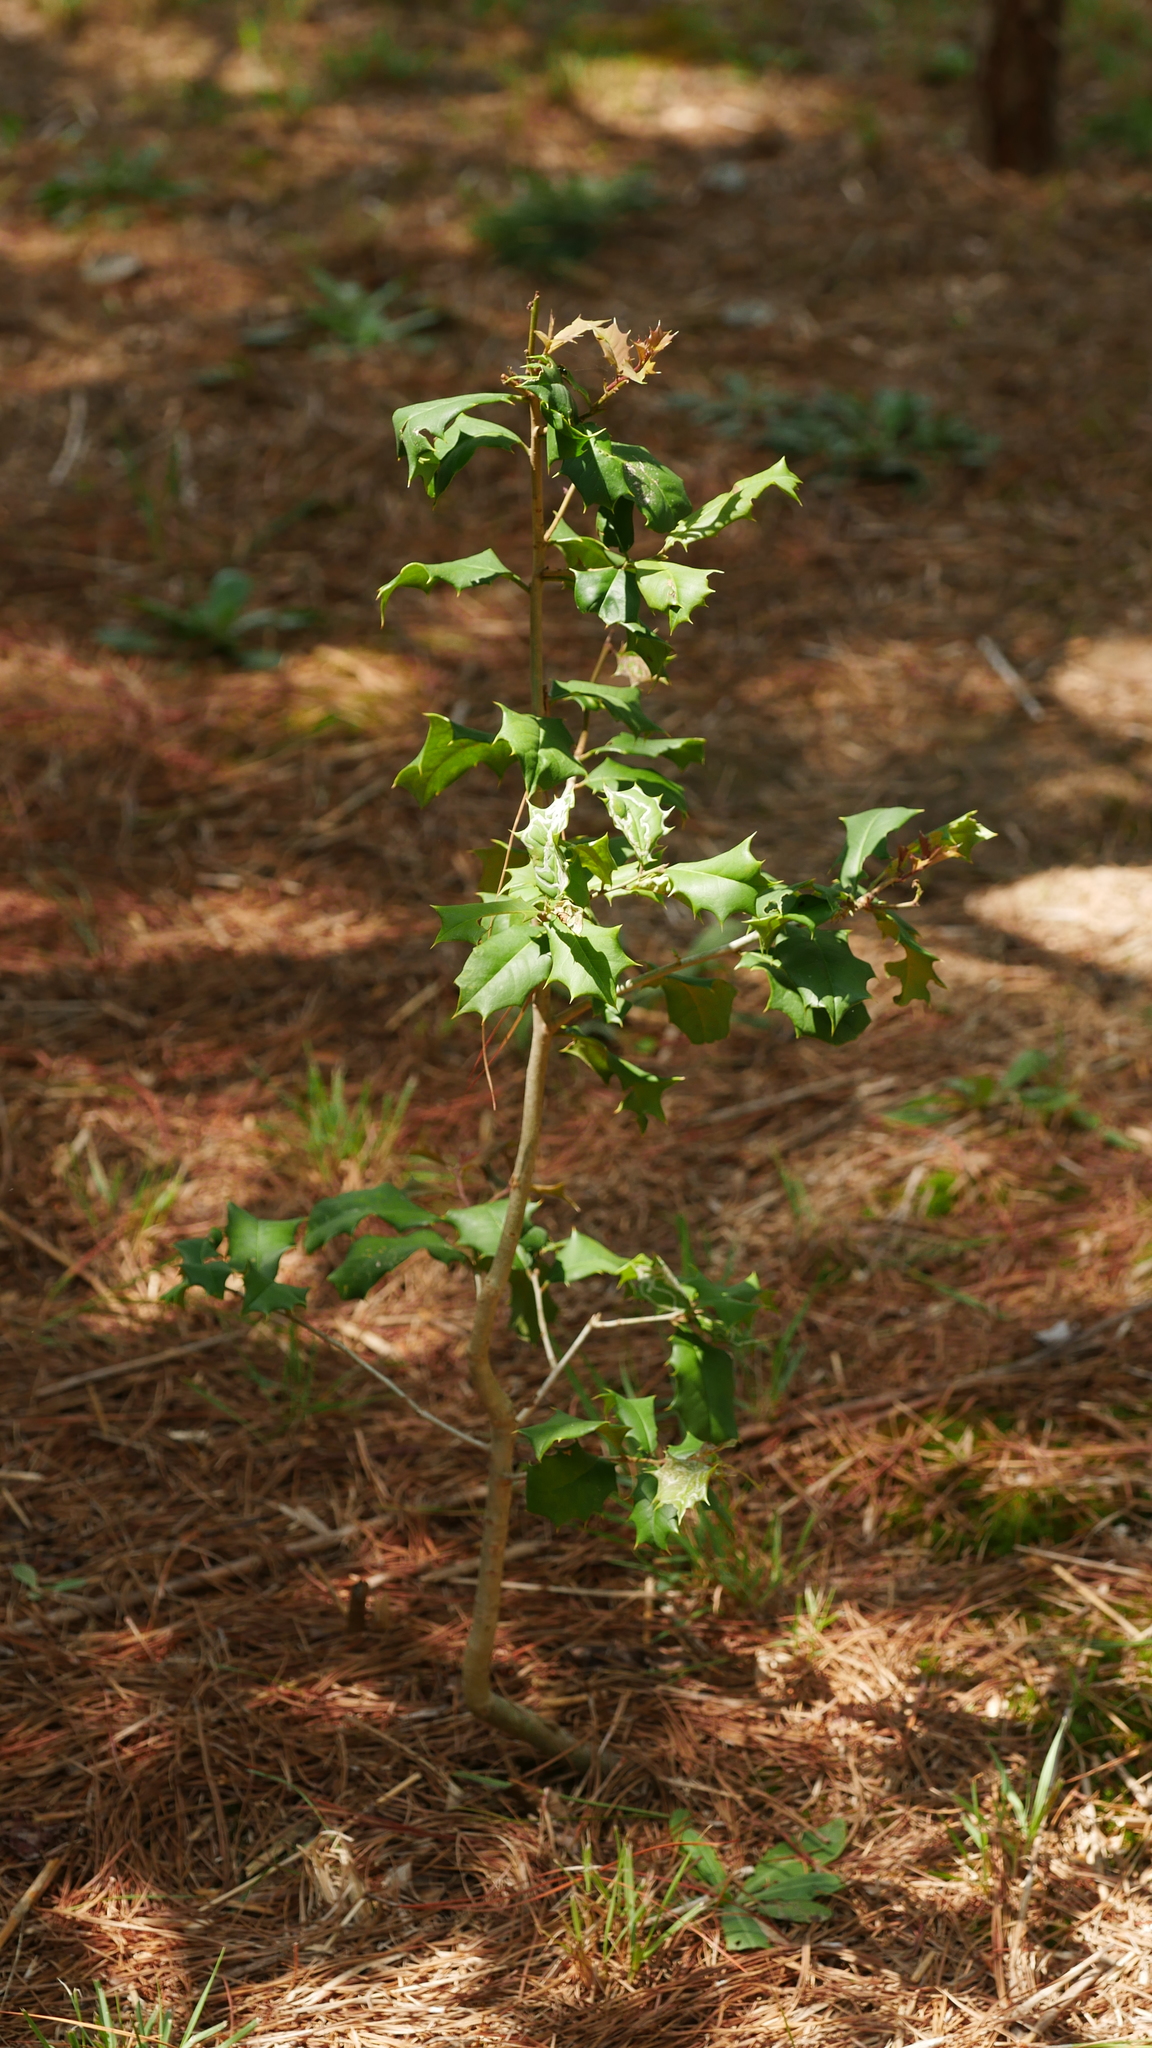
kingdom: Plantae
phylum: Tracheophyta
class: Magnoliopsida
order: Aquifoliales
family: Aquifoliaceae
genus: Ilex
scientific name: Ilex opaca
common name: American holly
